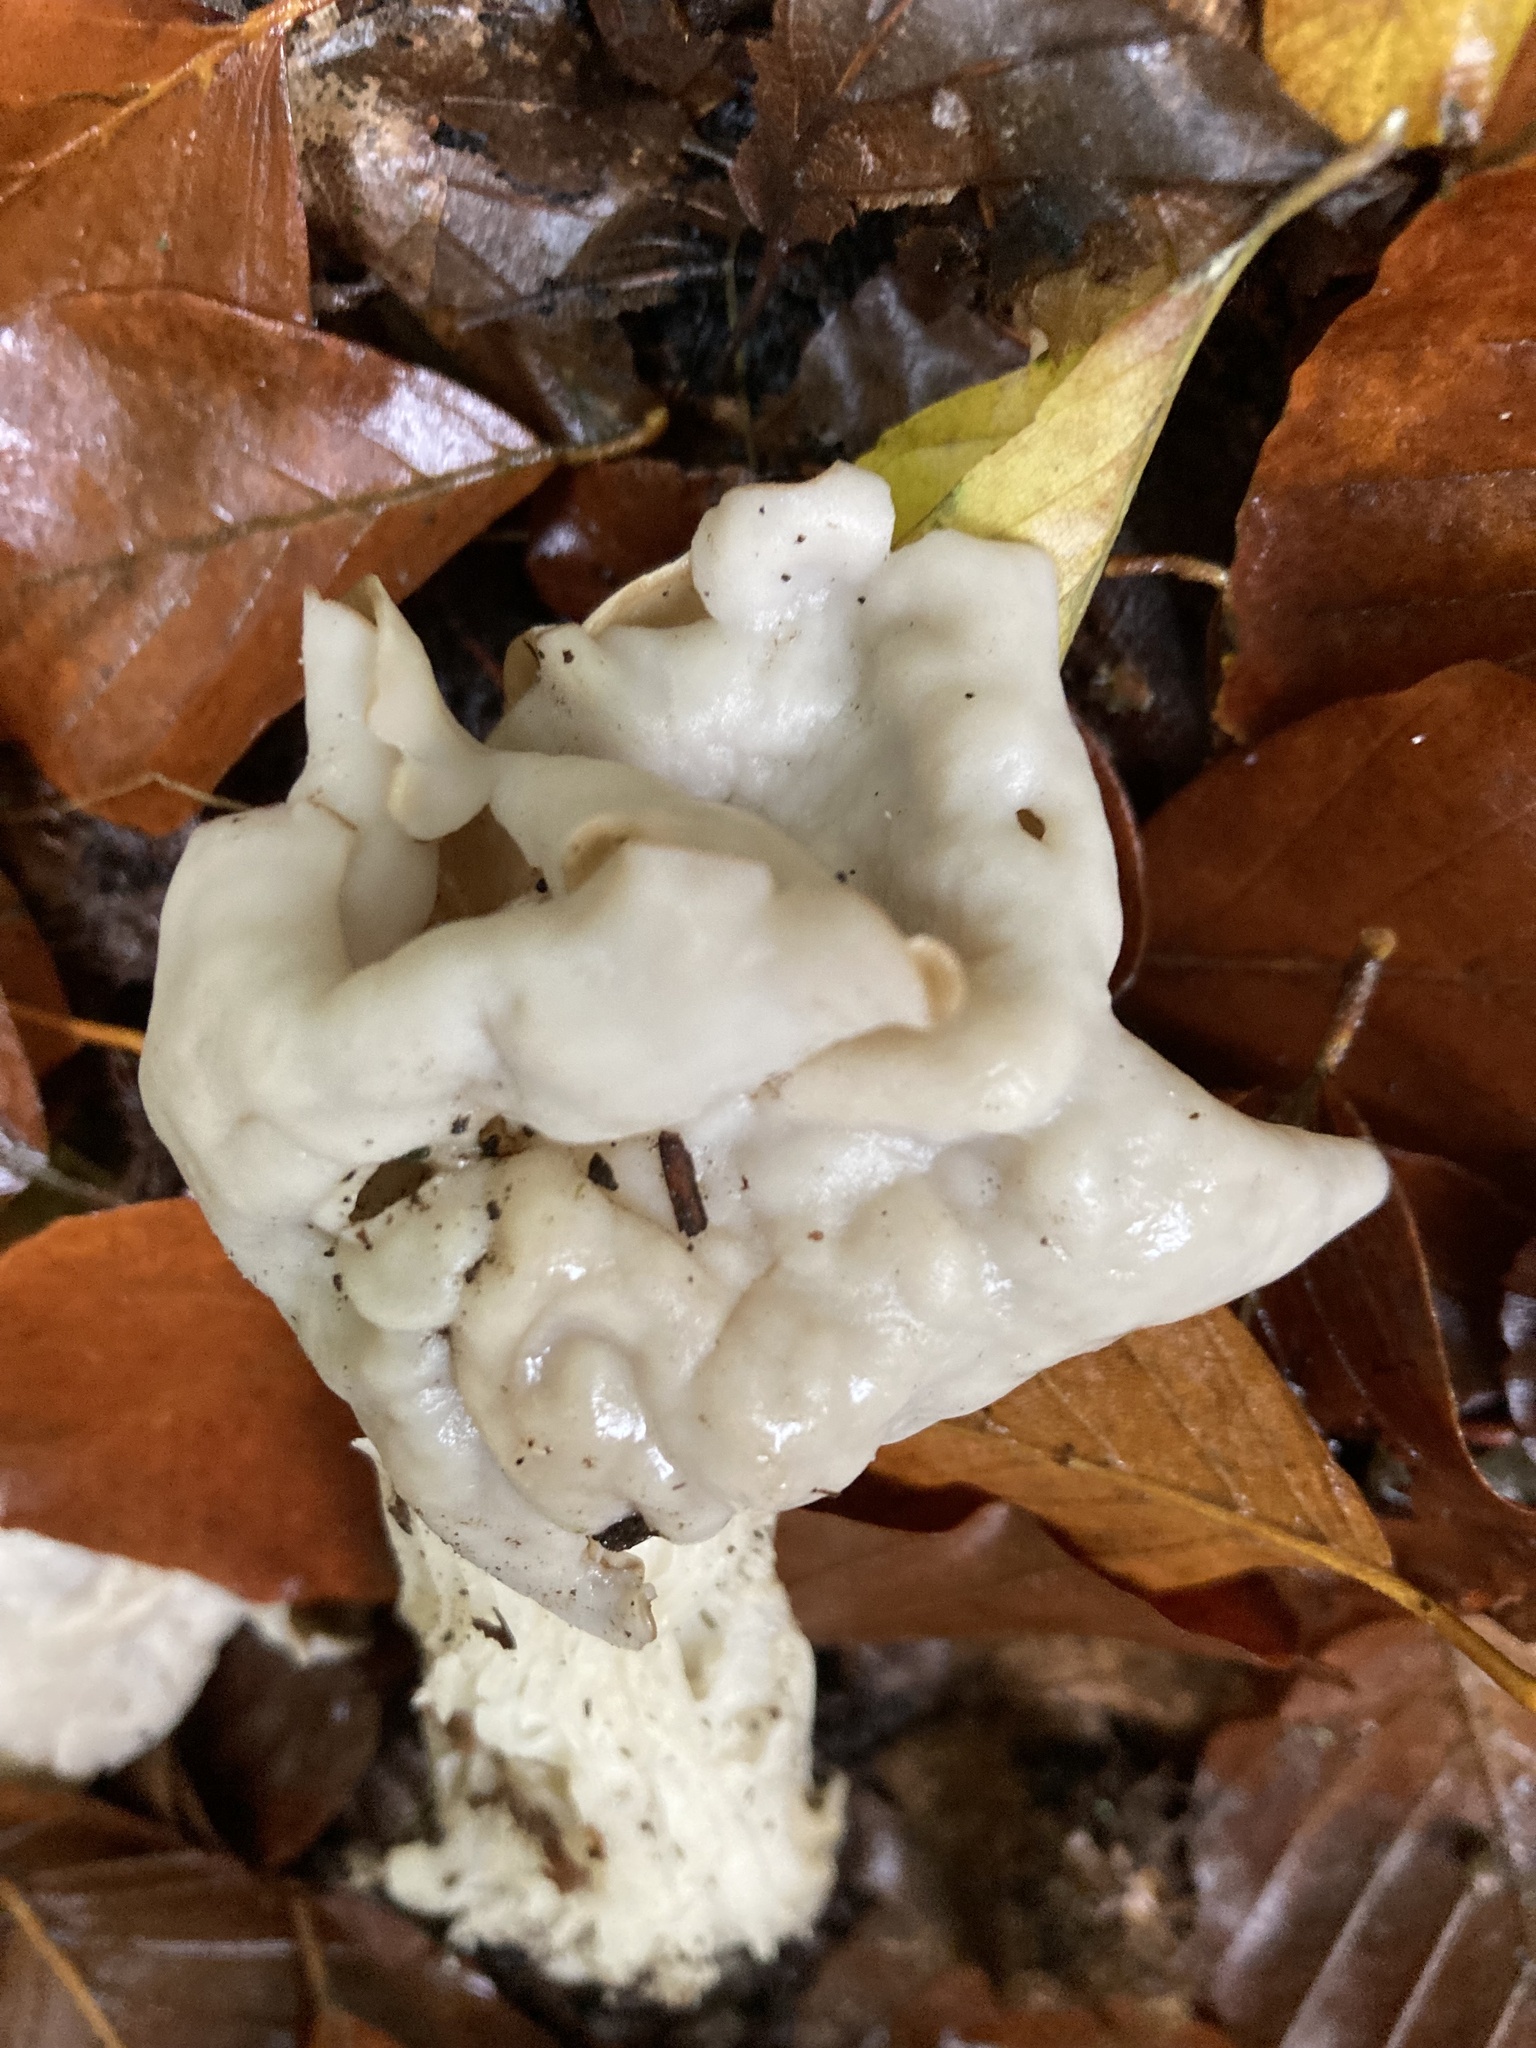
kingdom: Fungi
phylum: Ascomycota
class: Pezizomycetes
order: Pezizales
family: Helvellaceae
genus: Helvella
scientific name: Helvella crispa
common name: White saddle
